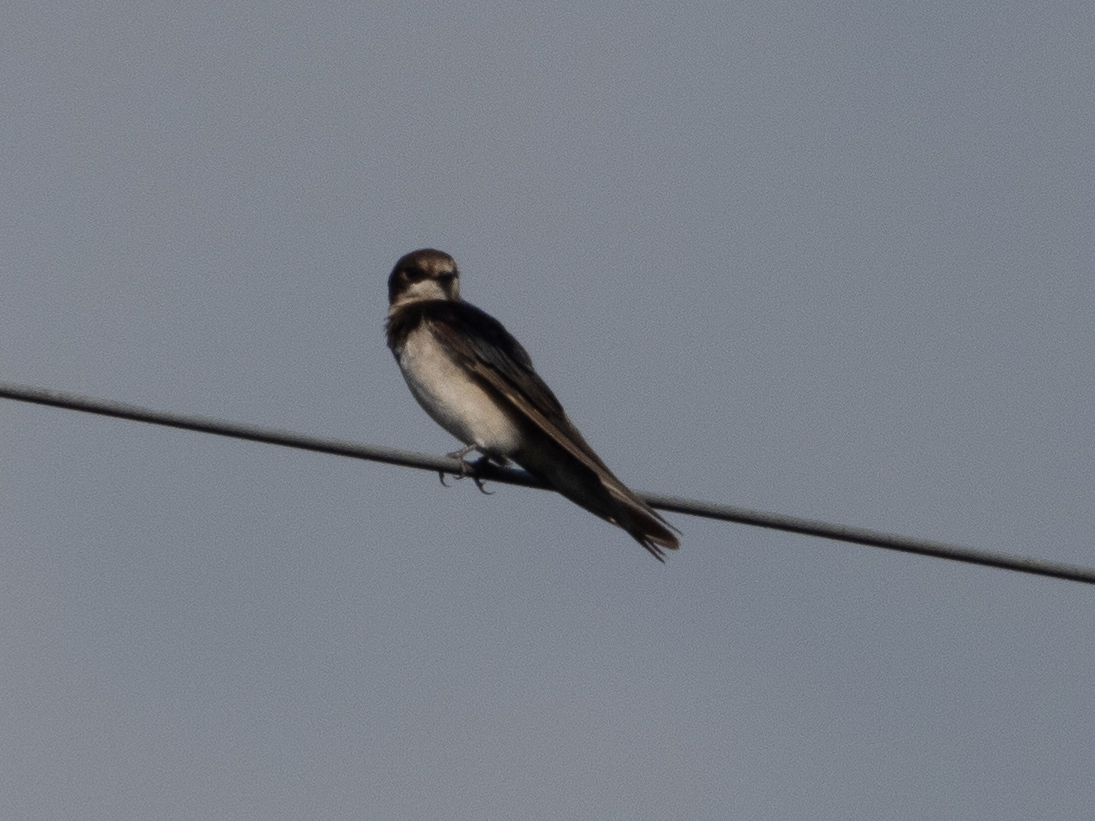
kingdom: Animalia
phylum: Chordata
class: Aves
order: Passeriformes
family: Hirundinidae
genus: Hirundo
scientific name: Hirundo rustica
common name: Barn swallow
